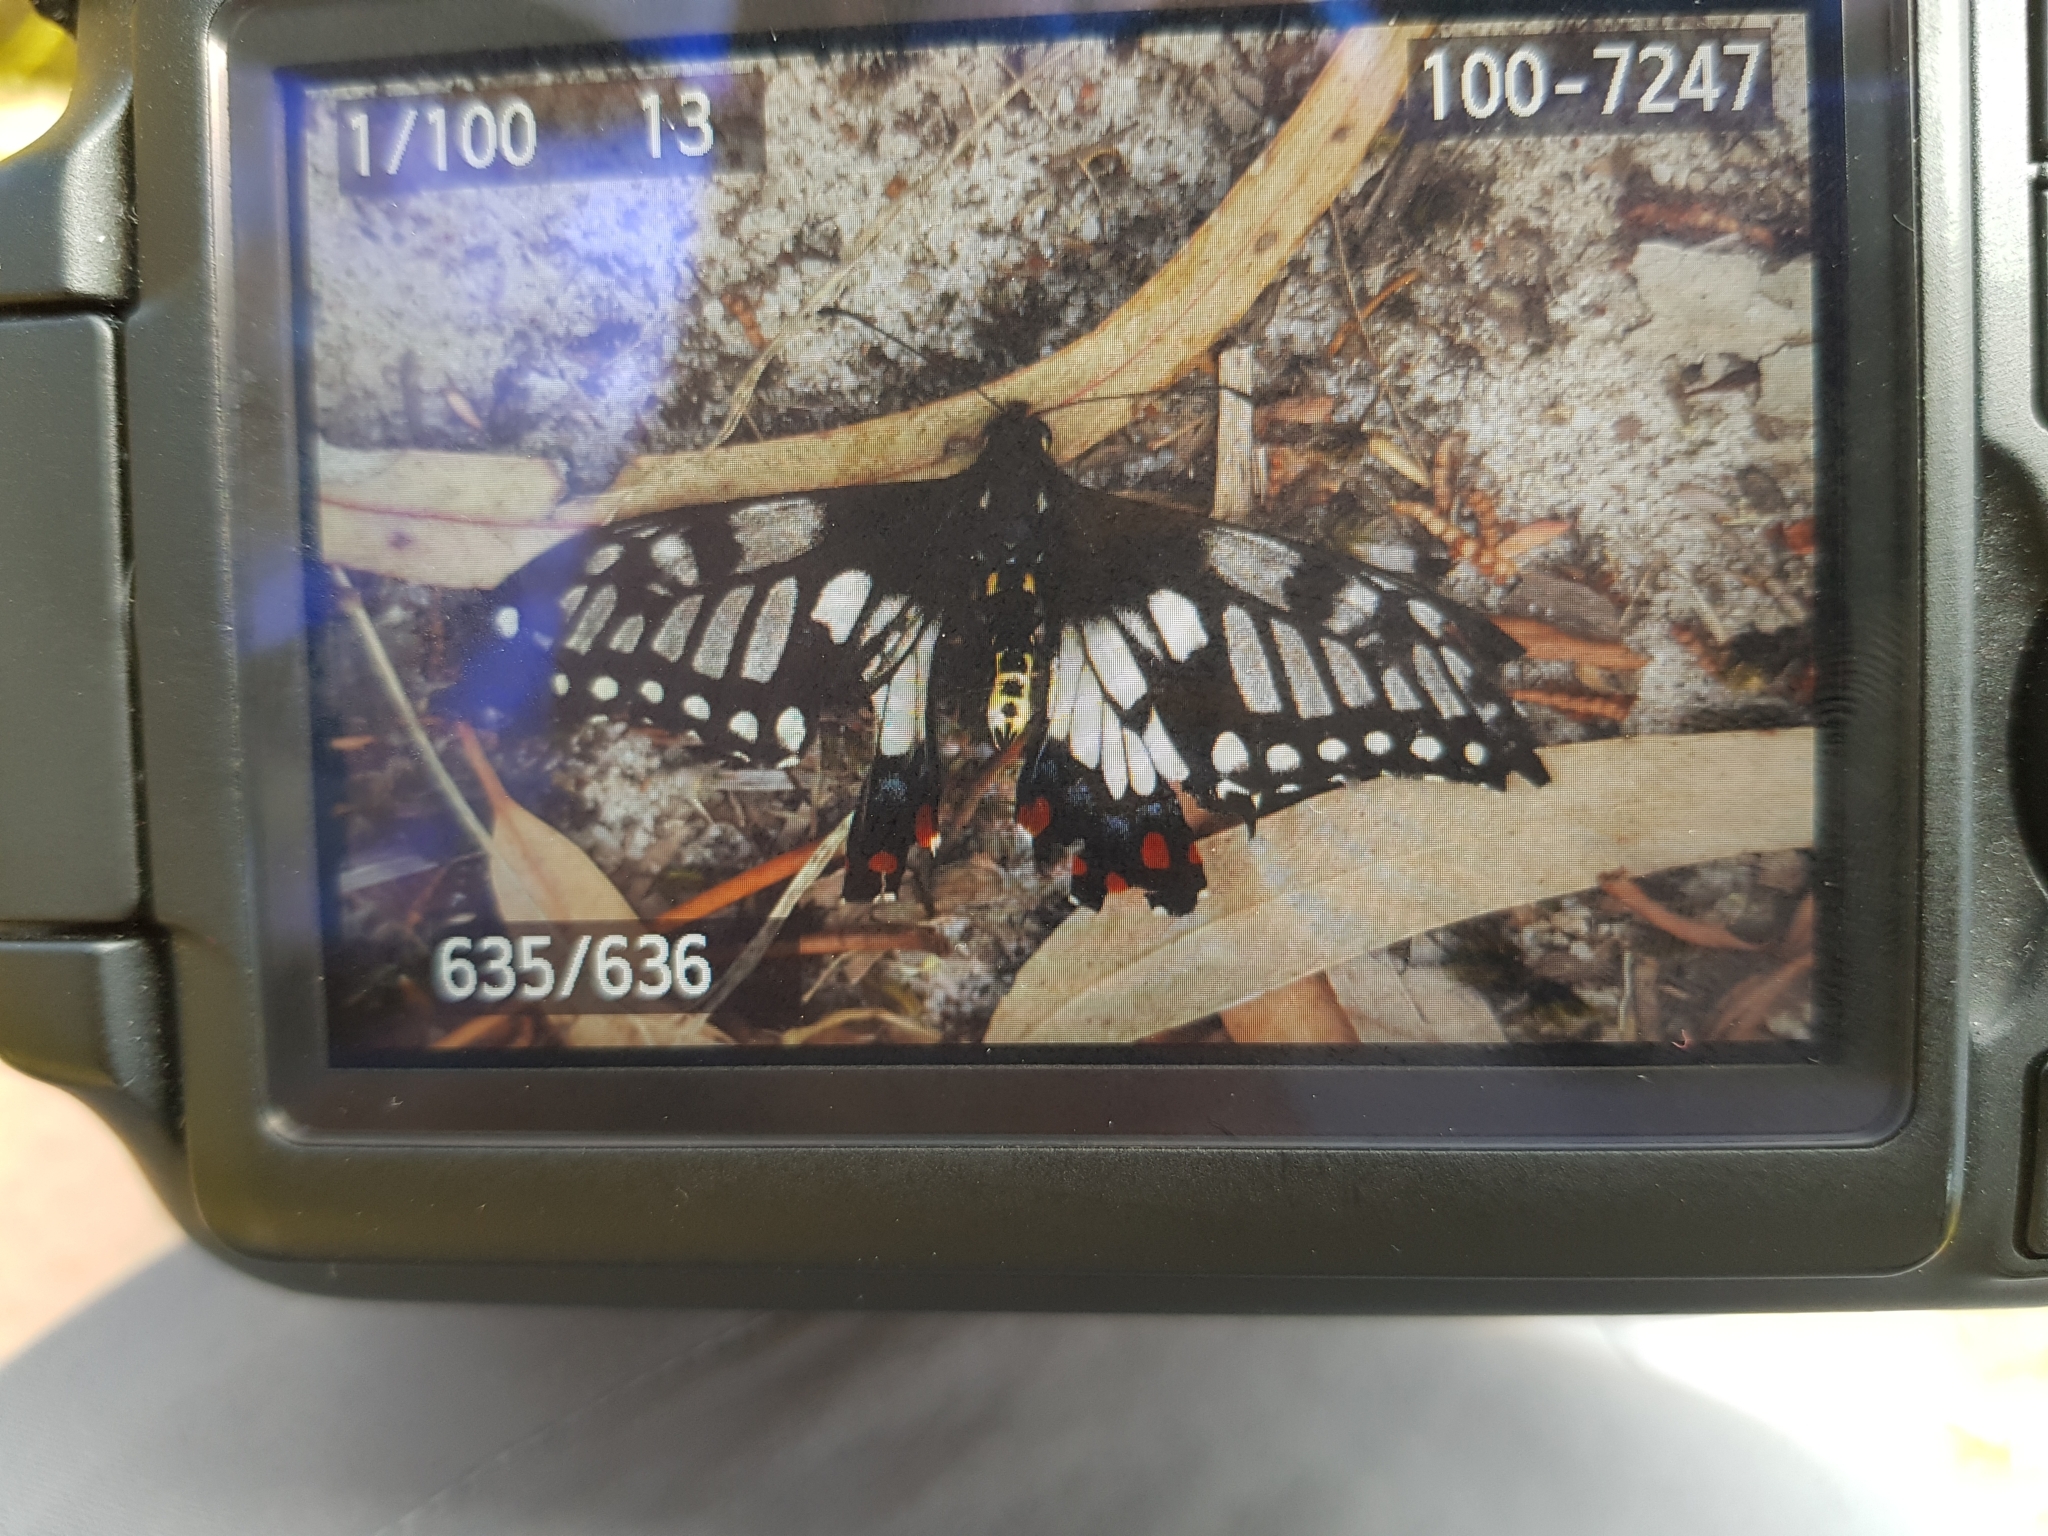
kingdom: Animalia
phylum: Arthropoda
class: Insecta
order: Lepidoptera
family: Papilionidae
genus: Papilio
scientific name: Papilio anactus
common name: Dingy swallowtail
